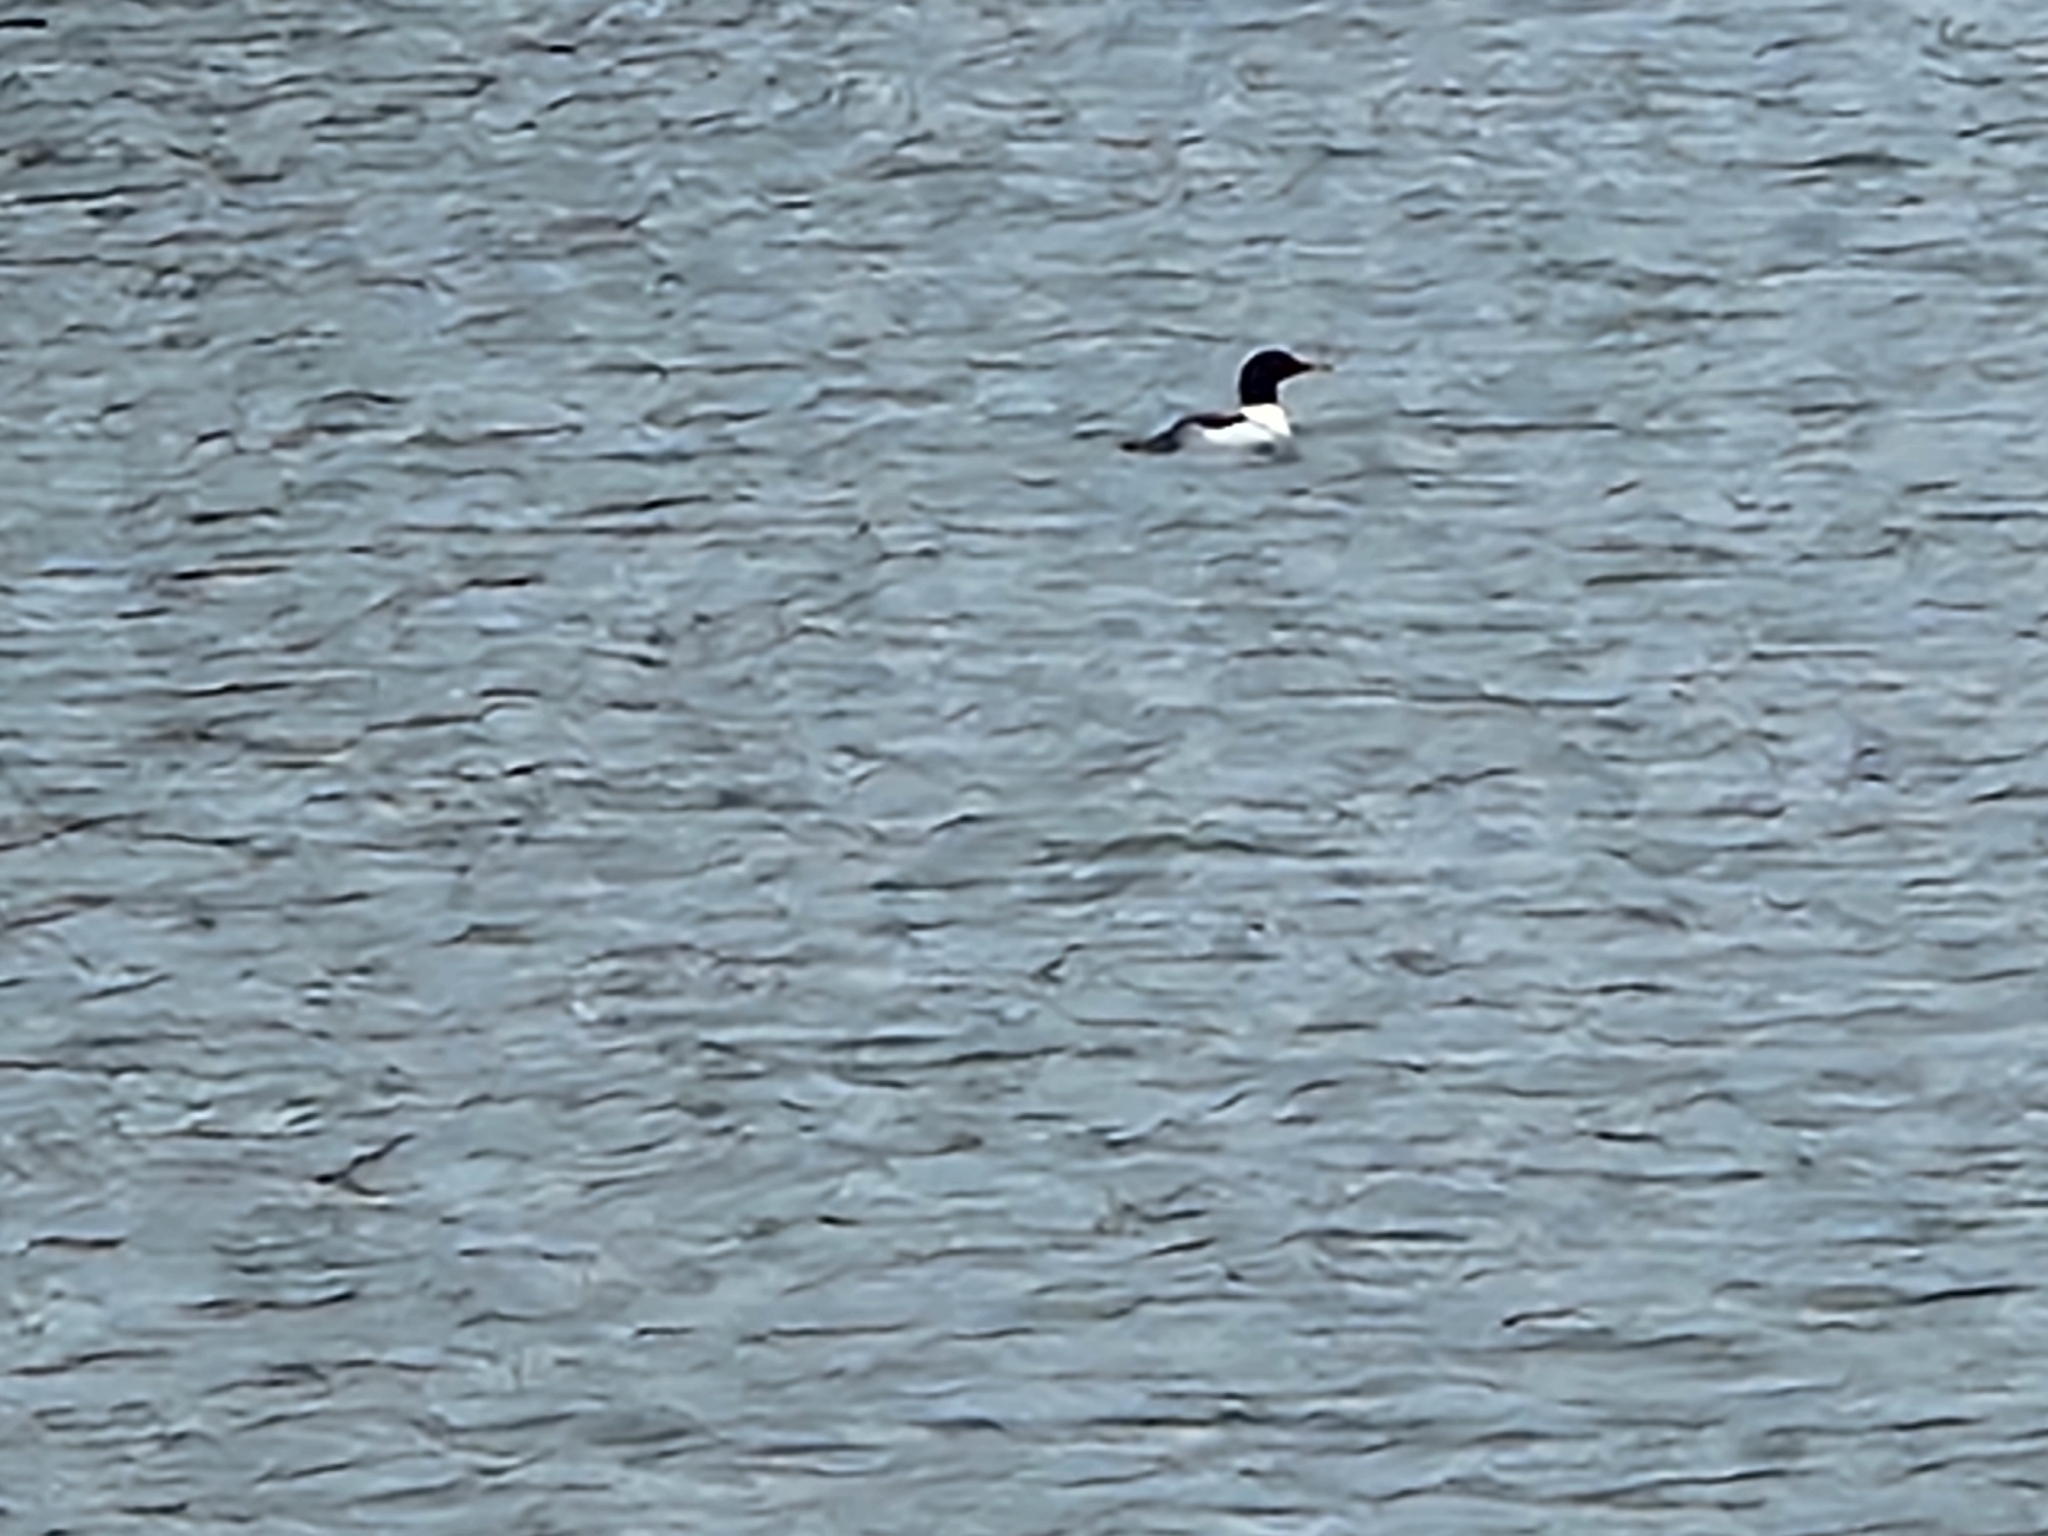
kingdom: Animalia
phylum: Chordata
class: Aves
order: Anseriformes
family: Anatidae
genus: Mergus
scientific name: Mergus merganser
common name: Common merganser
